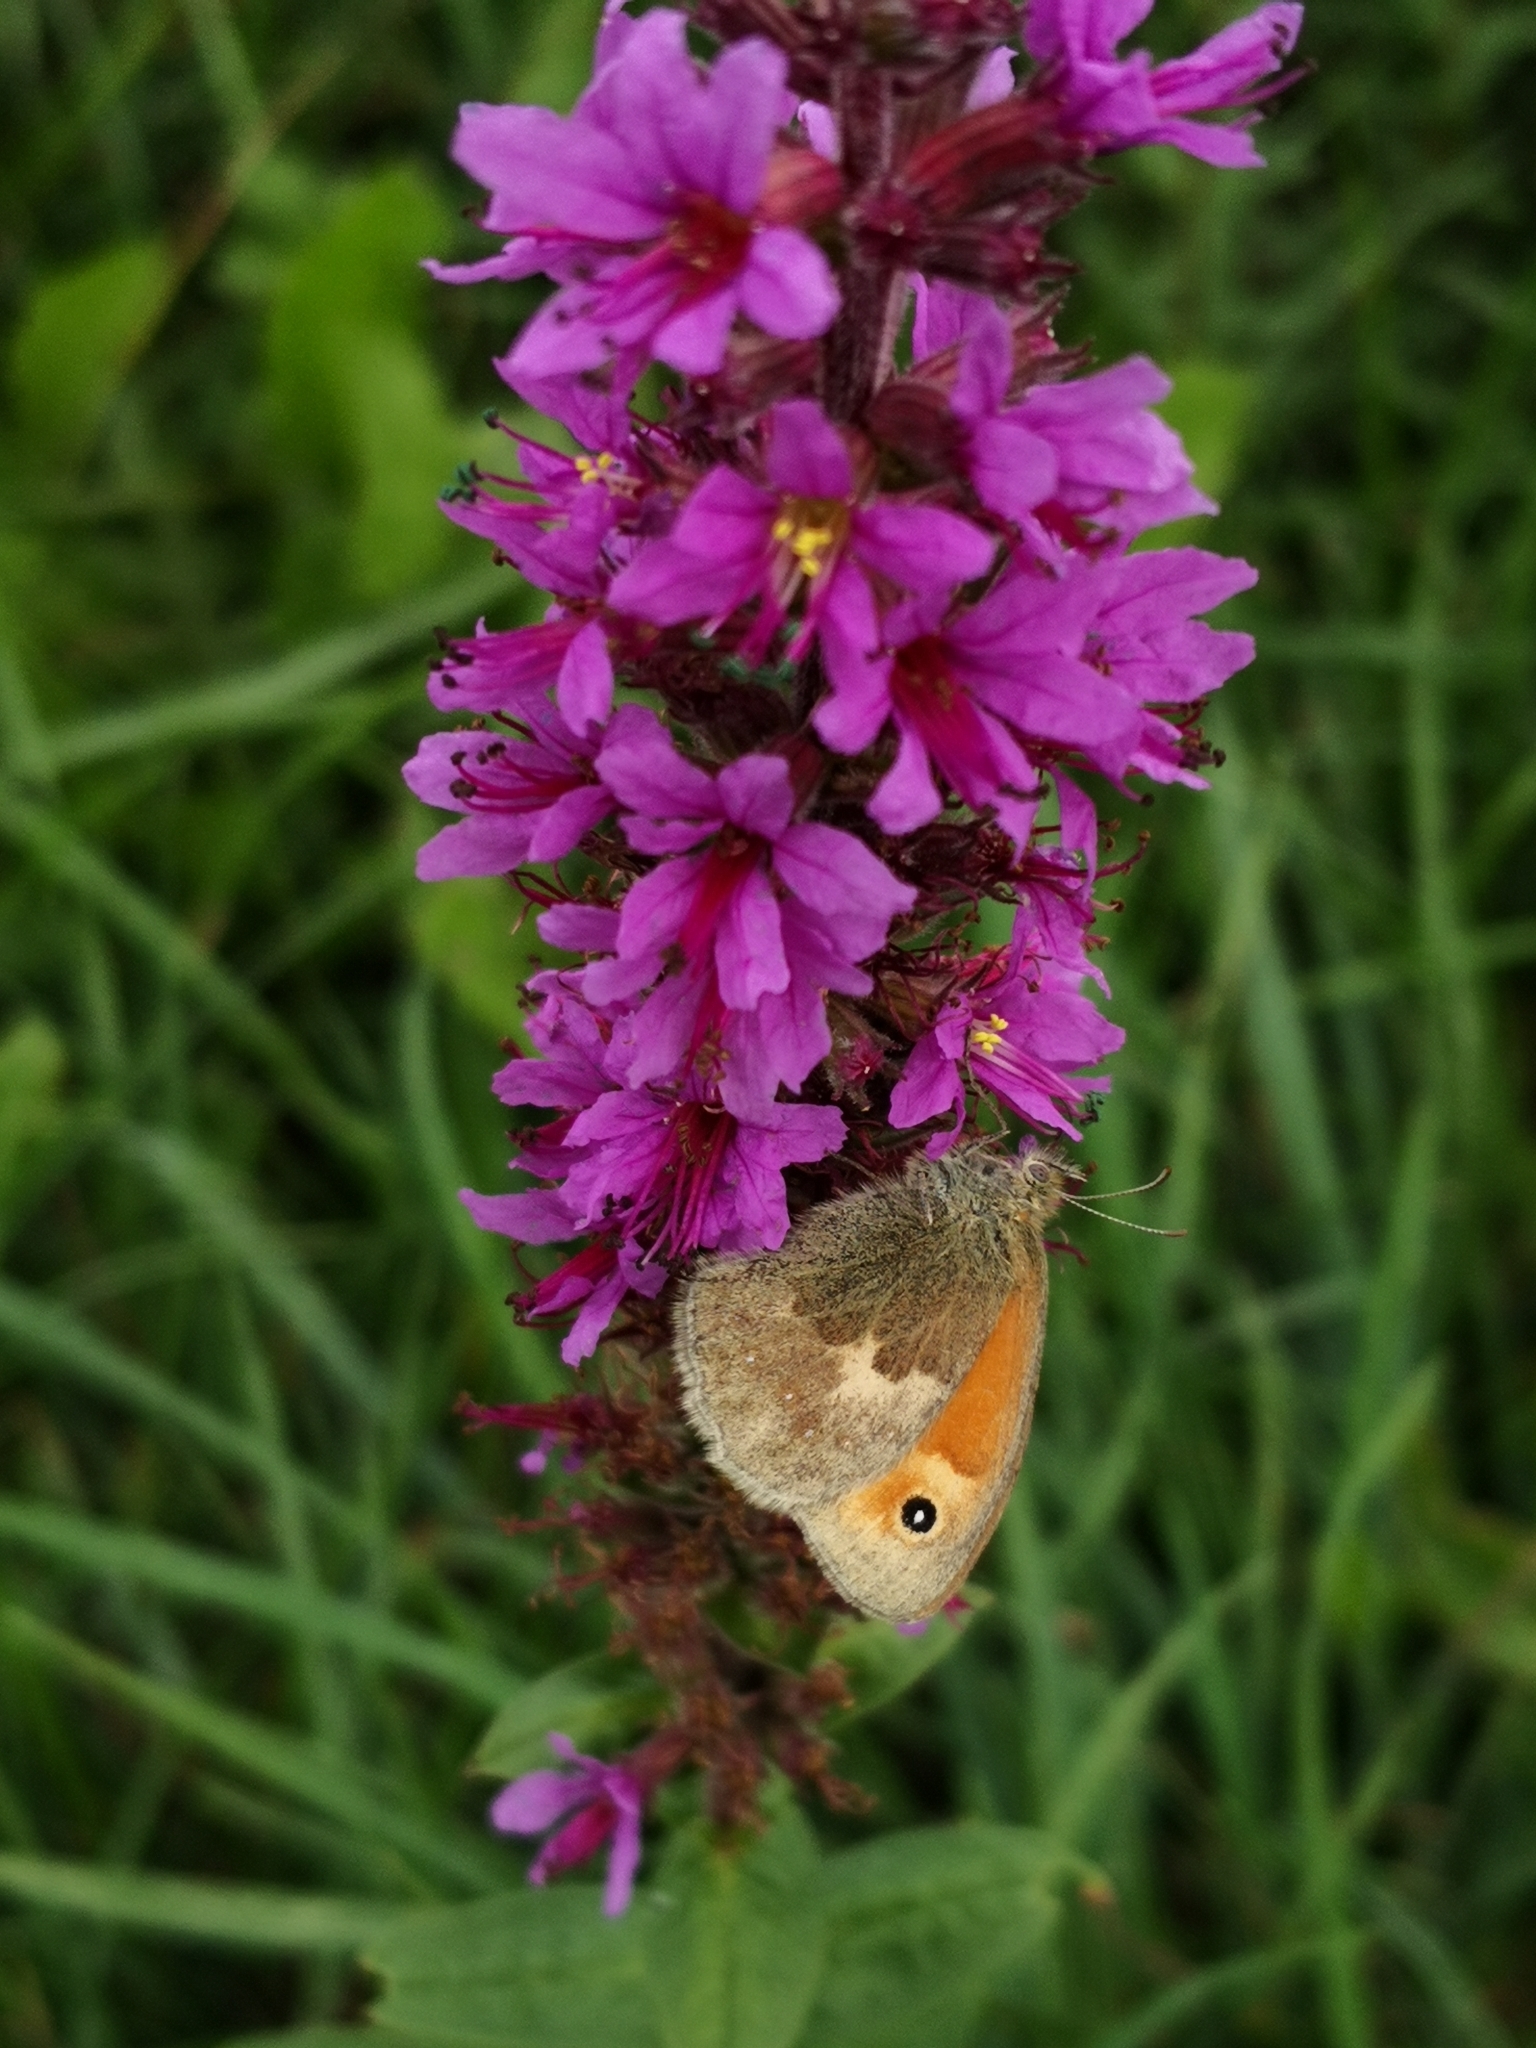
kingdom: Animalia
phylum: Arthropoda
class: Insecta
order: Lepidoptera
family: Nymphalidae
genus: Coenonympha
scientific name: Coenonympha pamphilus
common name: Small heath
